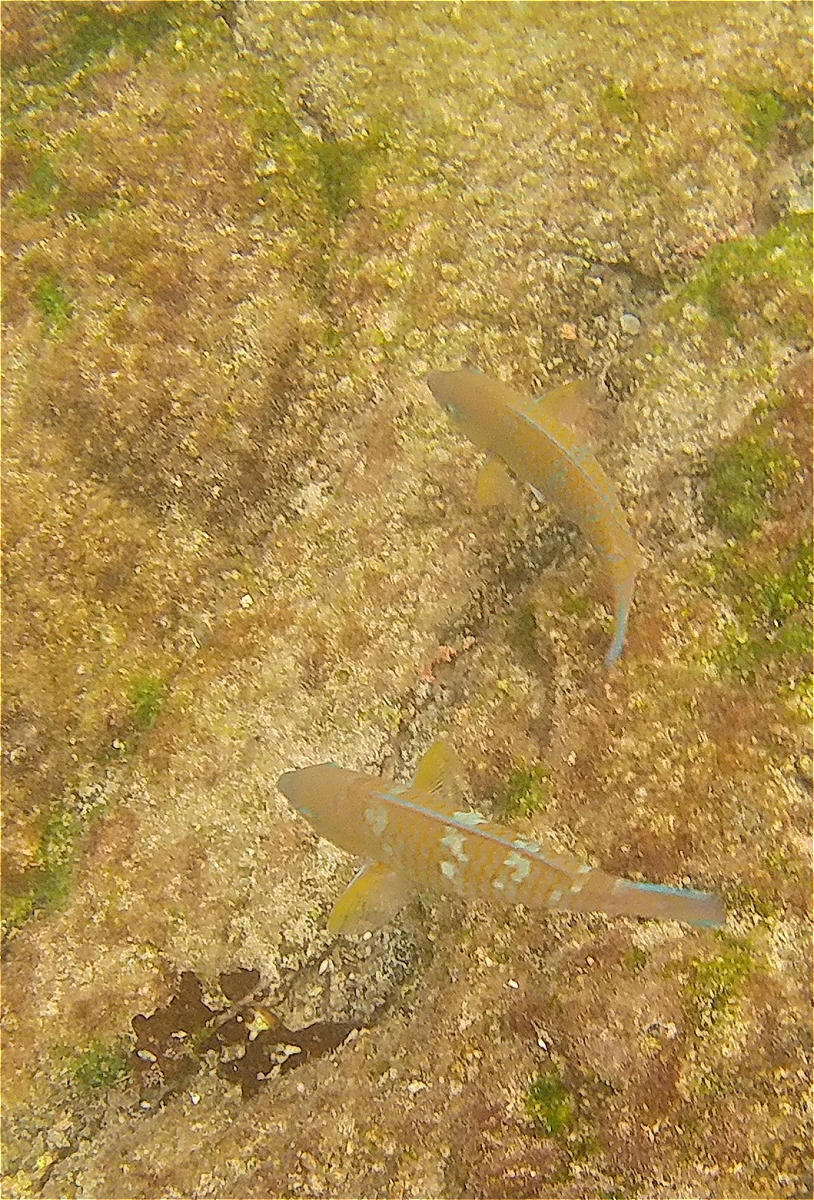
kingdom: Animalia
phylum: Chordata
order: Perciformes
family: Scaridae
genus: Scarus
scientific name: Scarus ghobban
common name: Blue-barred parrotfish
